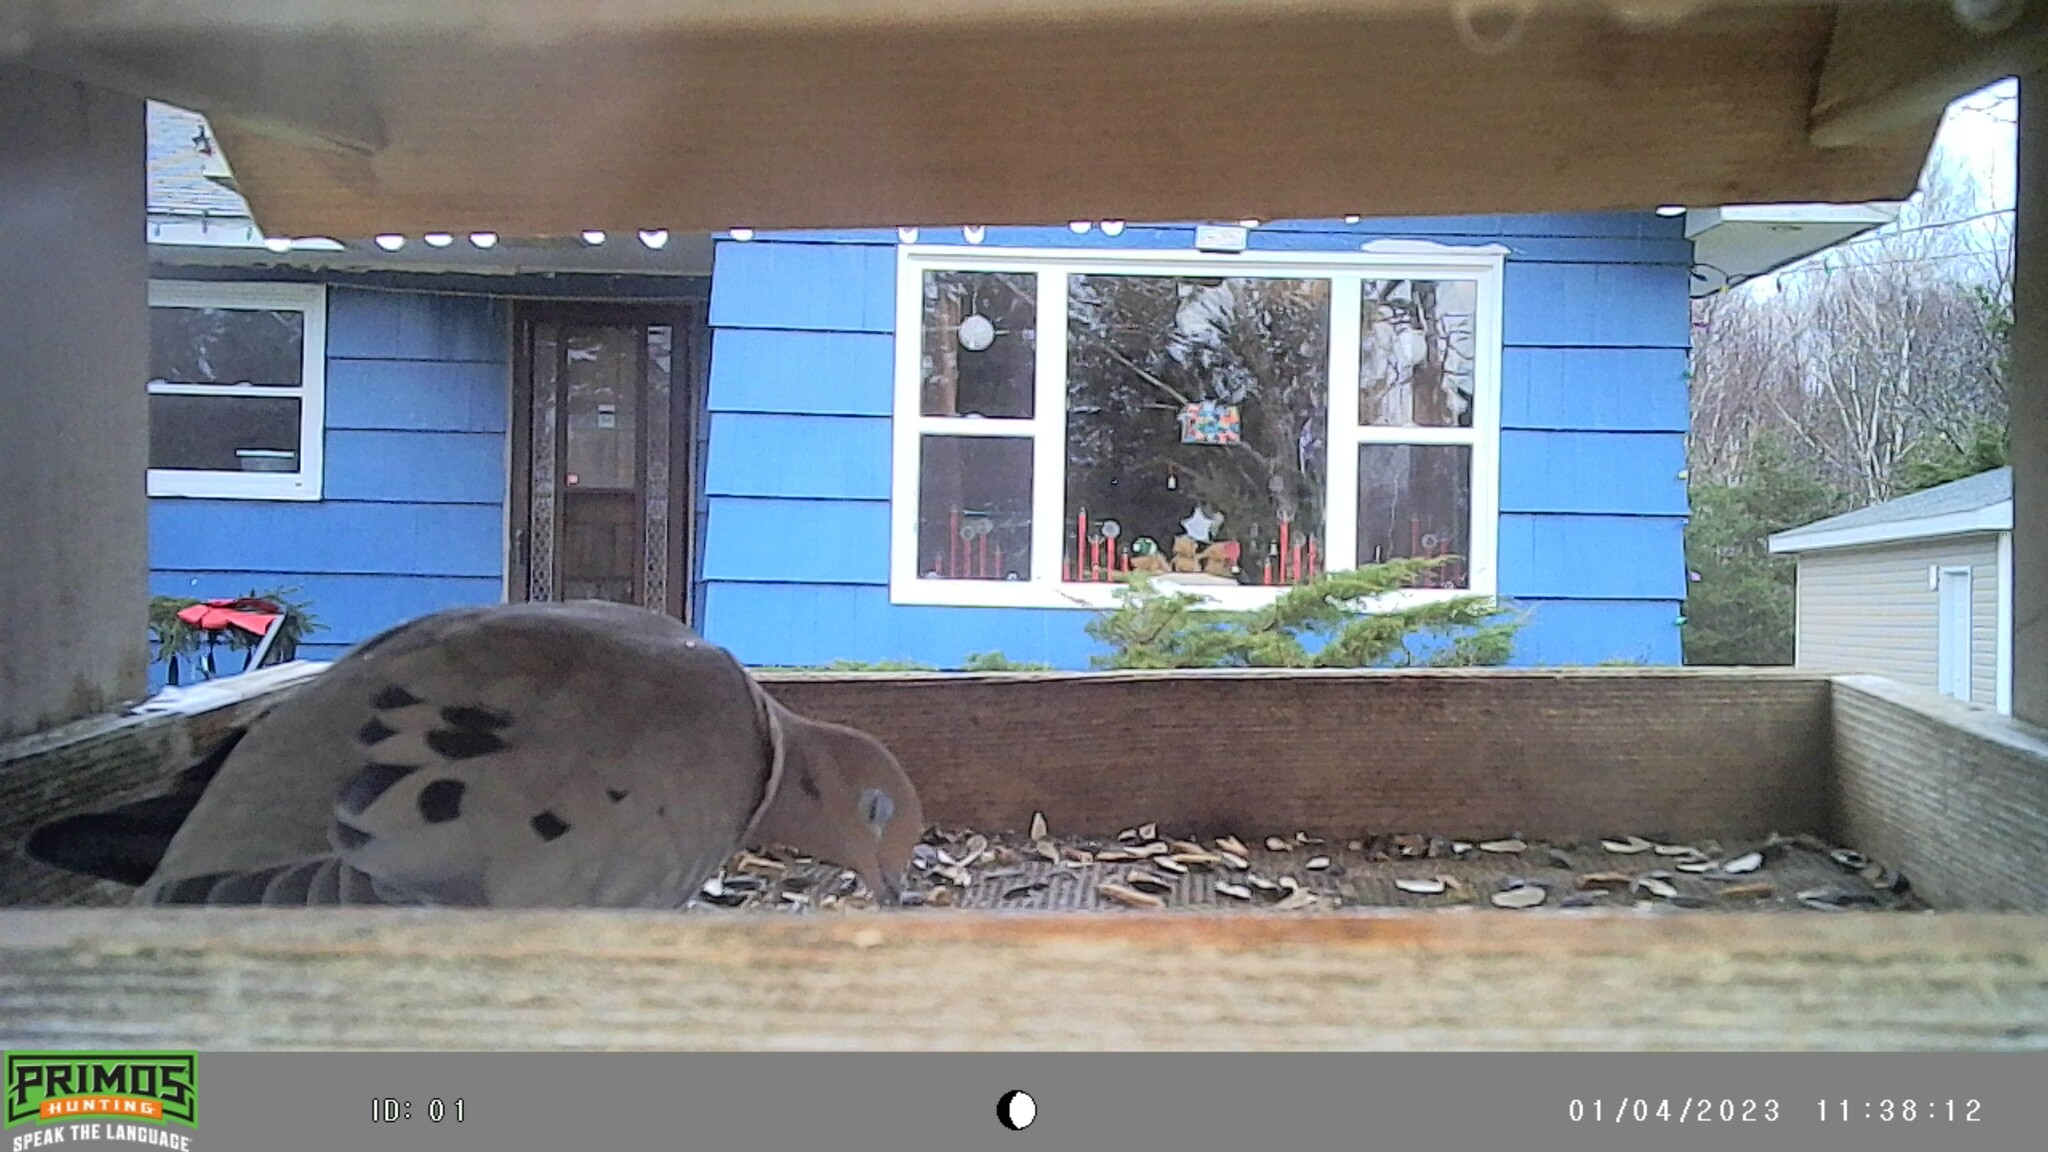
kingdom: Animalia
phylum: Chordata
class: Aves
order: Columbiformes
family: Columbidae
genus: Zenaida
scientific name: Zenaida macroura
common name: Mourning dove
